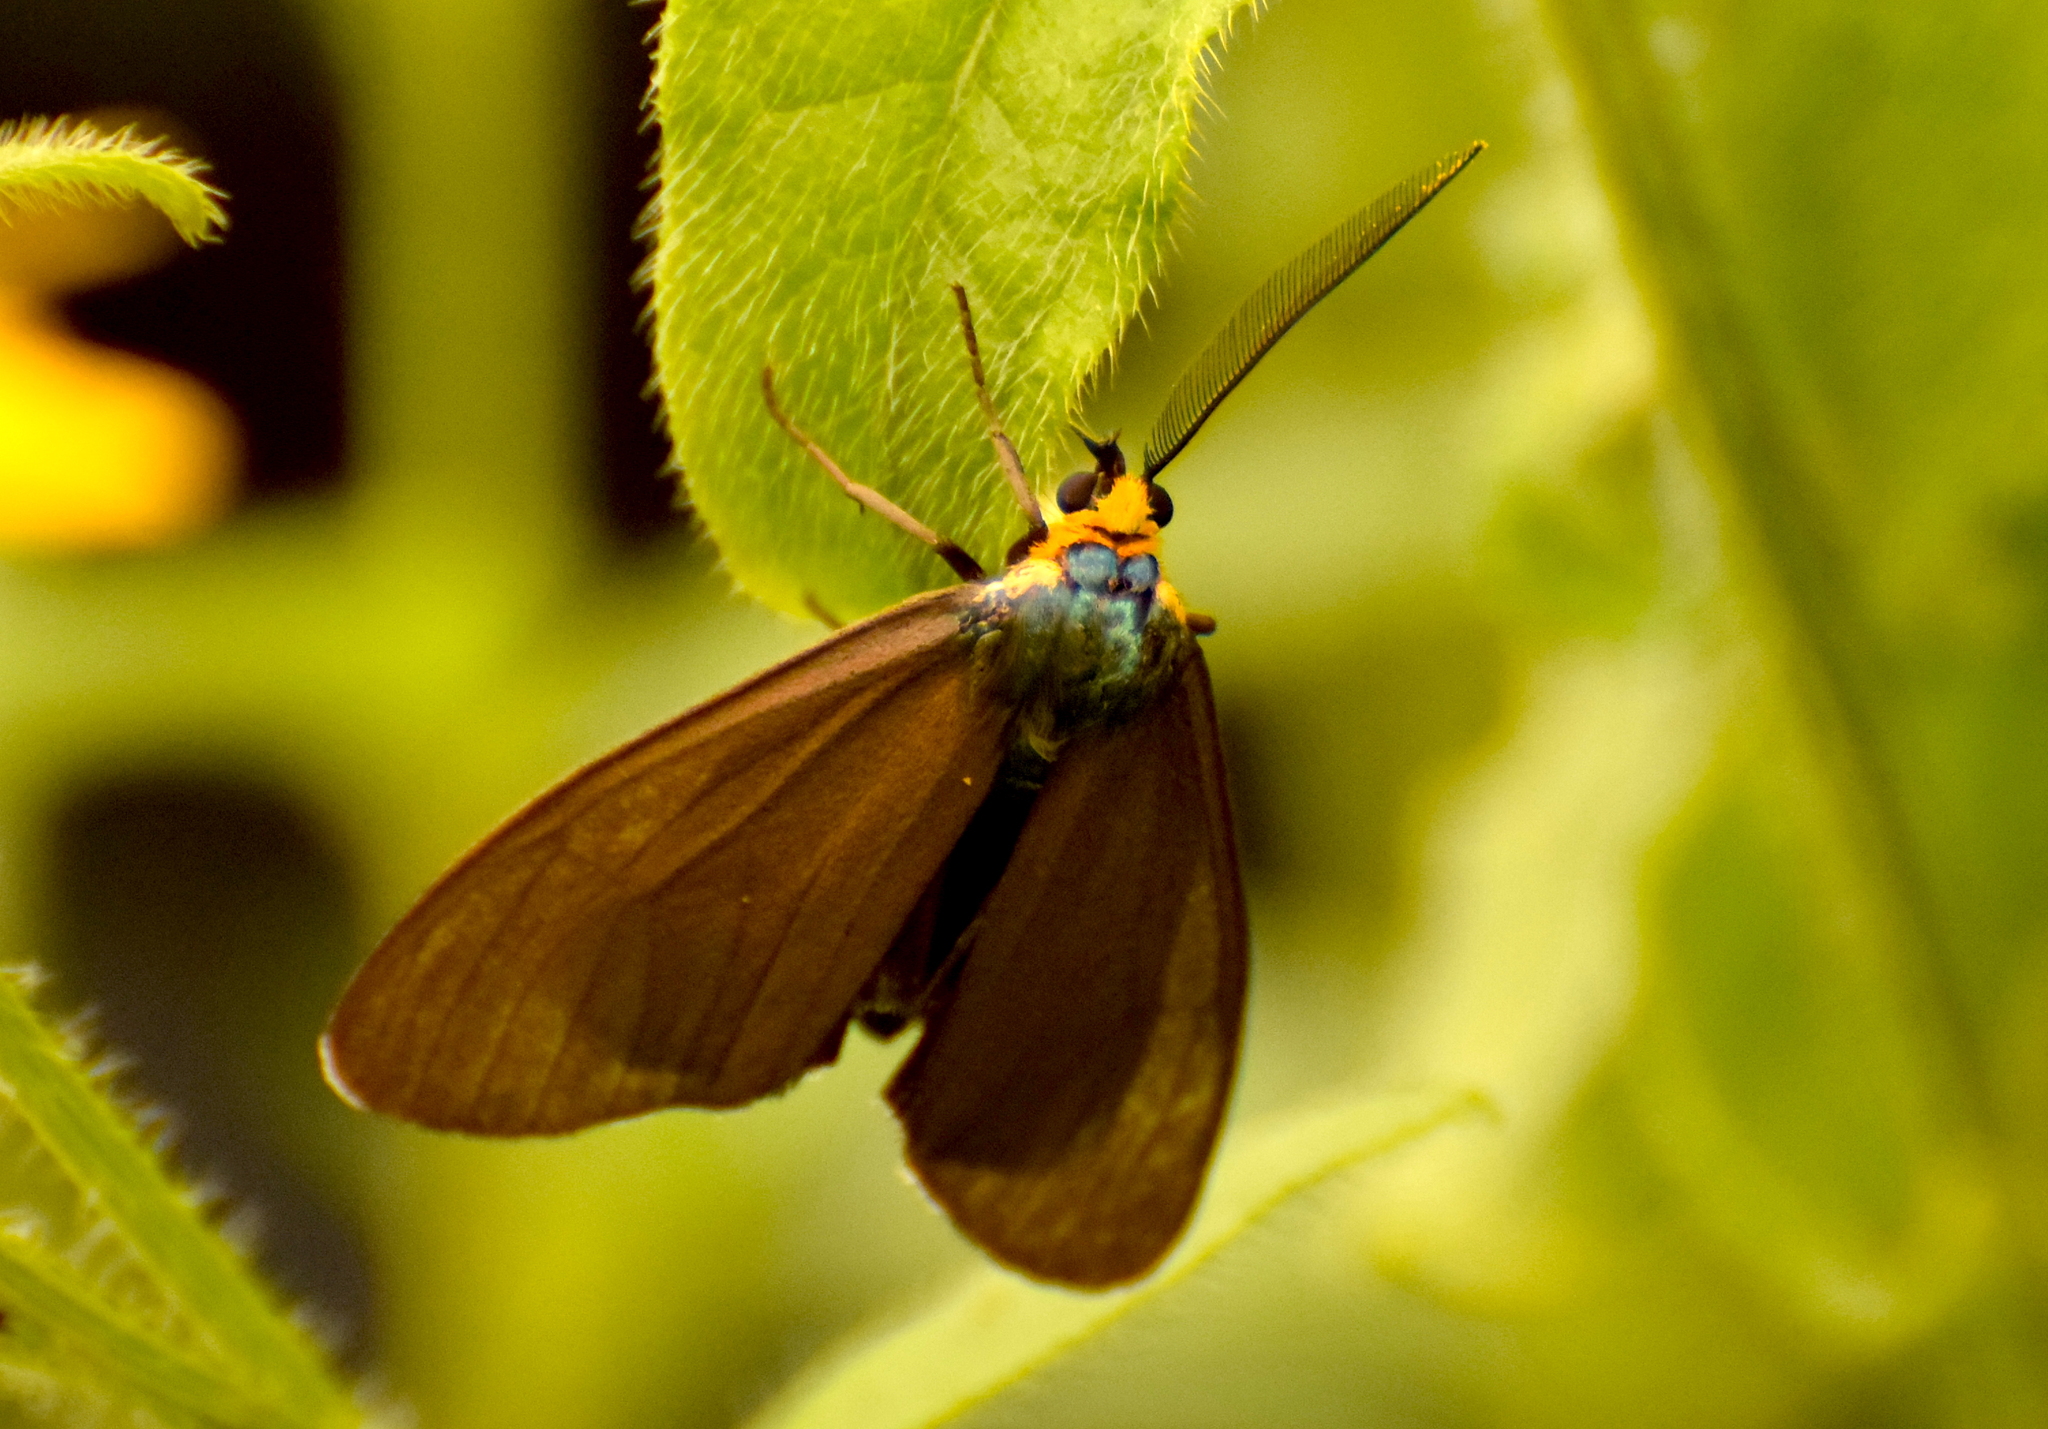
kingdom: Animalia
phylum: Arthropoda
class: Insecta
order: Lepidoptera
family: Erebidae
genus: Ctenucha
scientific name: Ctenucha virginica
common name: Virginia ctenucha moth
